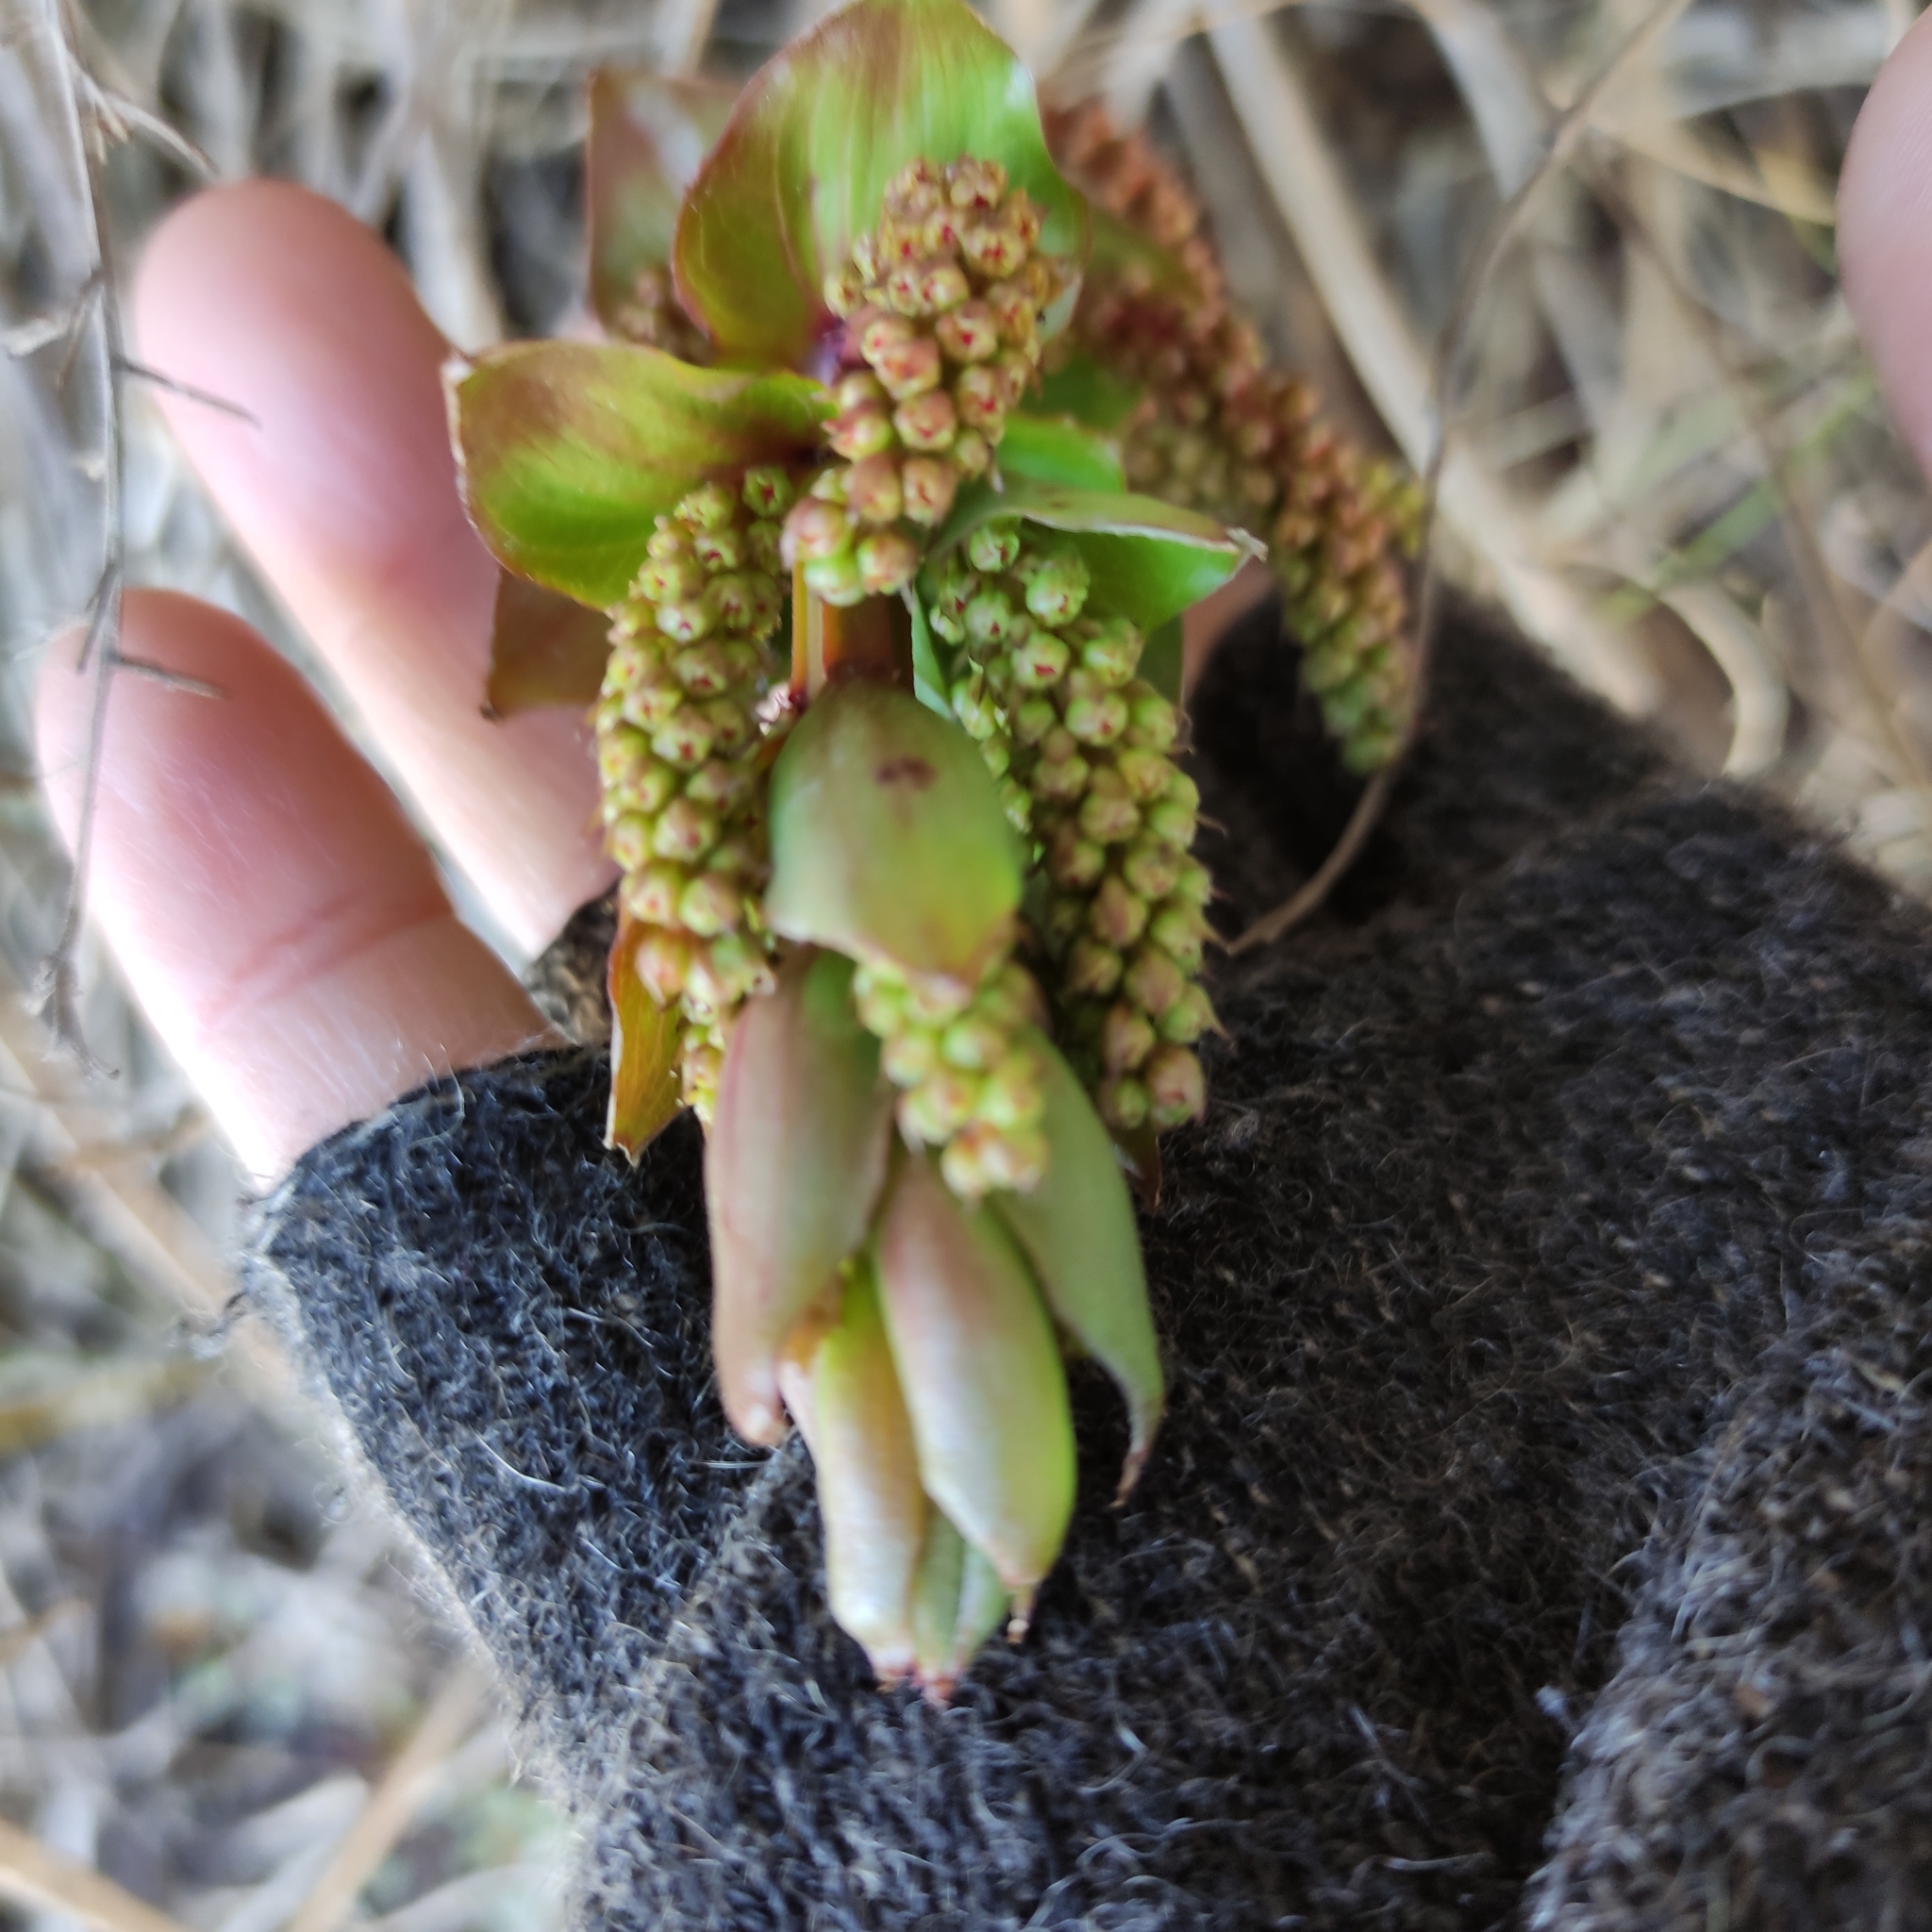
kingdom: Plantae
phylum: Tracheophyta
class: Magnoliopsida
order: Cucurbitales
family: Coriariaceae
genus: Coriaria
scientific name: Coriaria sarmentosa
